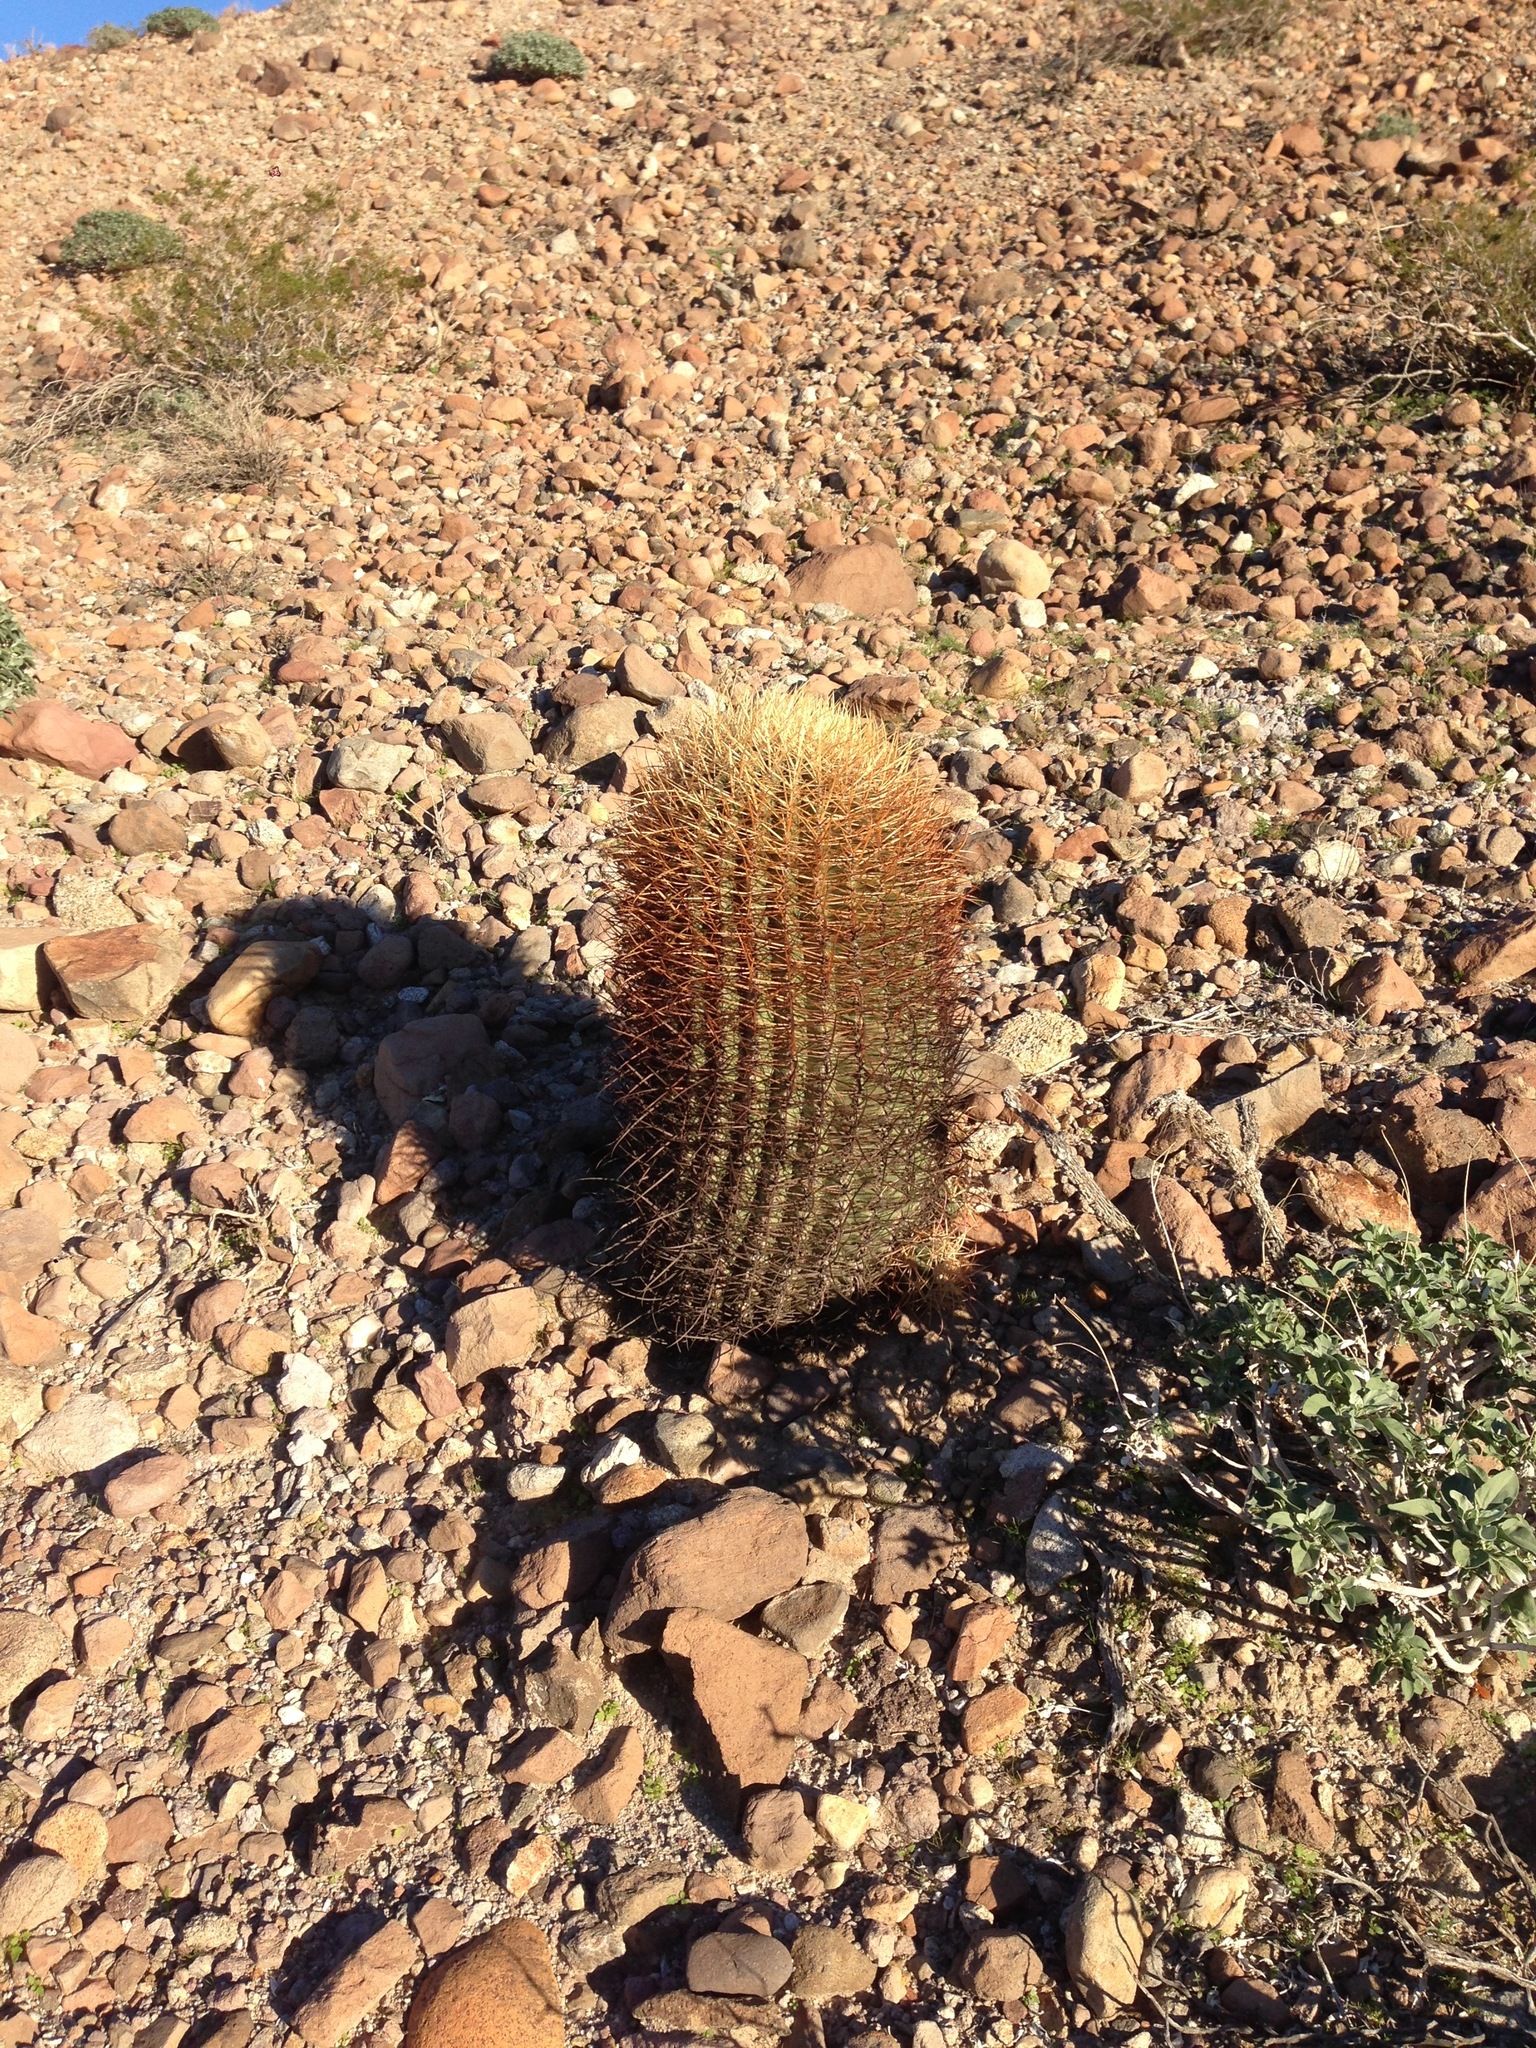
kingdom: Plantae
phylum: Tracheophyta
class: Magnoliopsida
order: Caryophyllales
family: Cactaceae
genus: Ferocactus
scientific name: Ferocactus cylindraceus
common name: California barrel cactus
